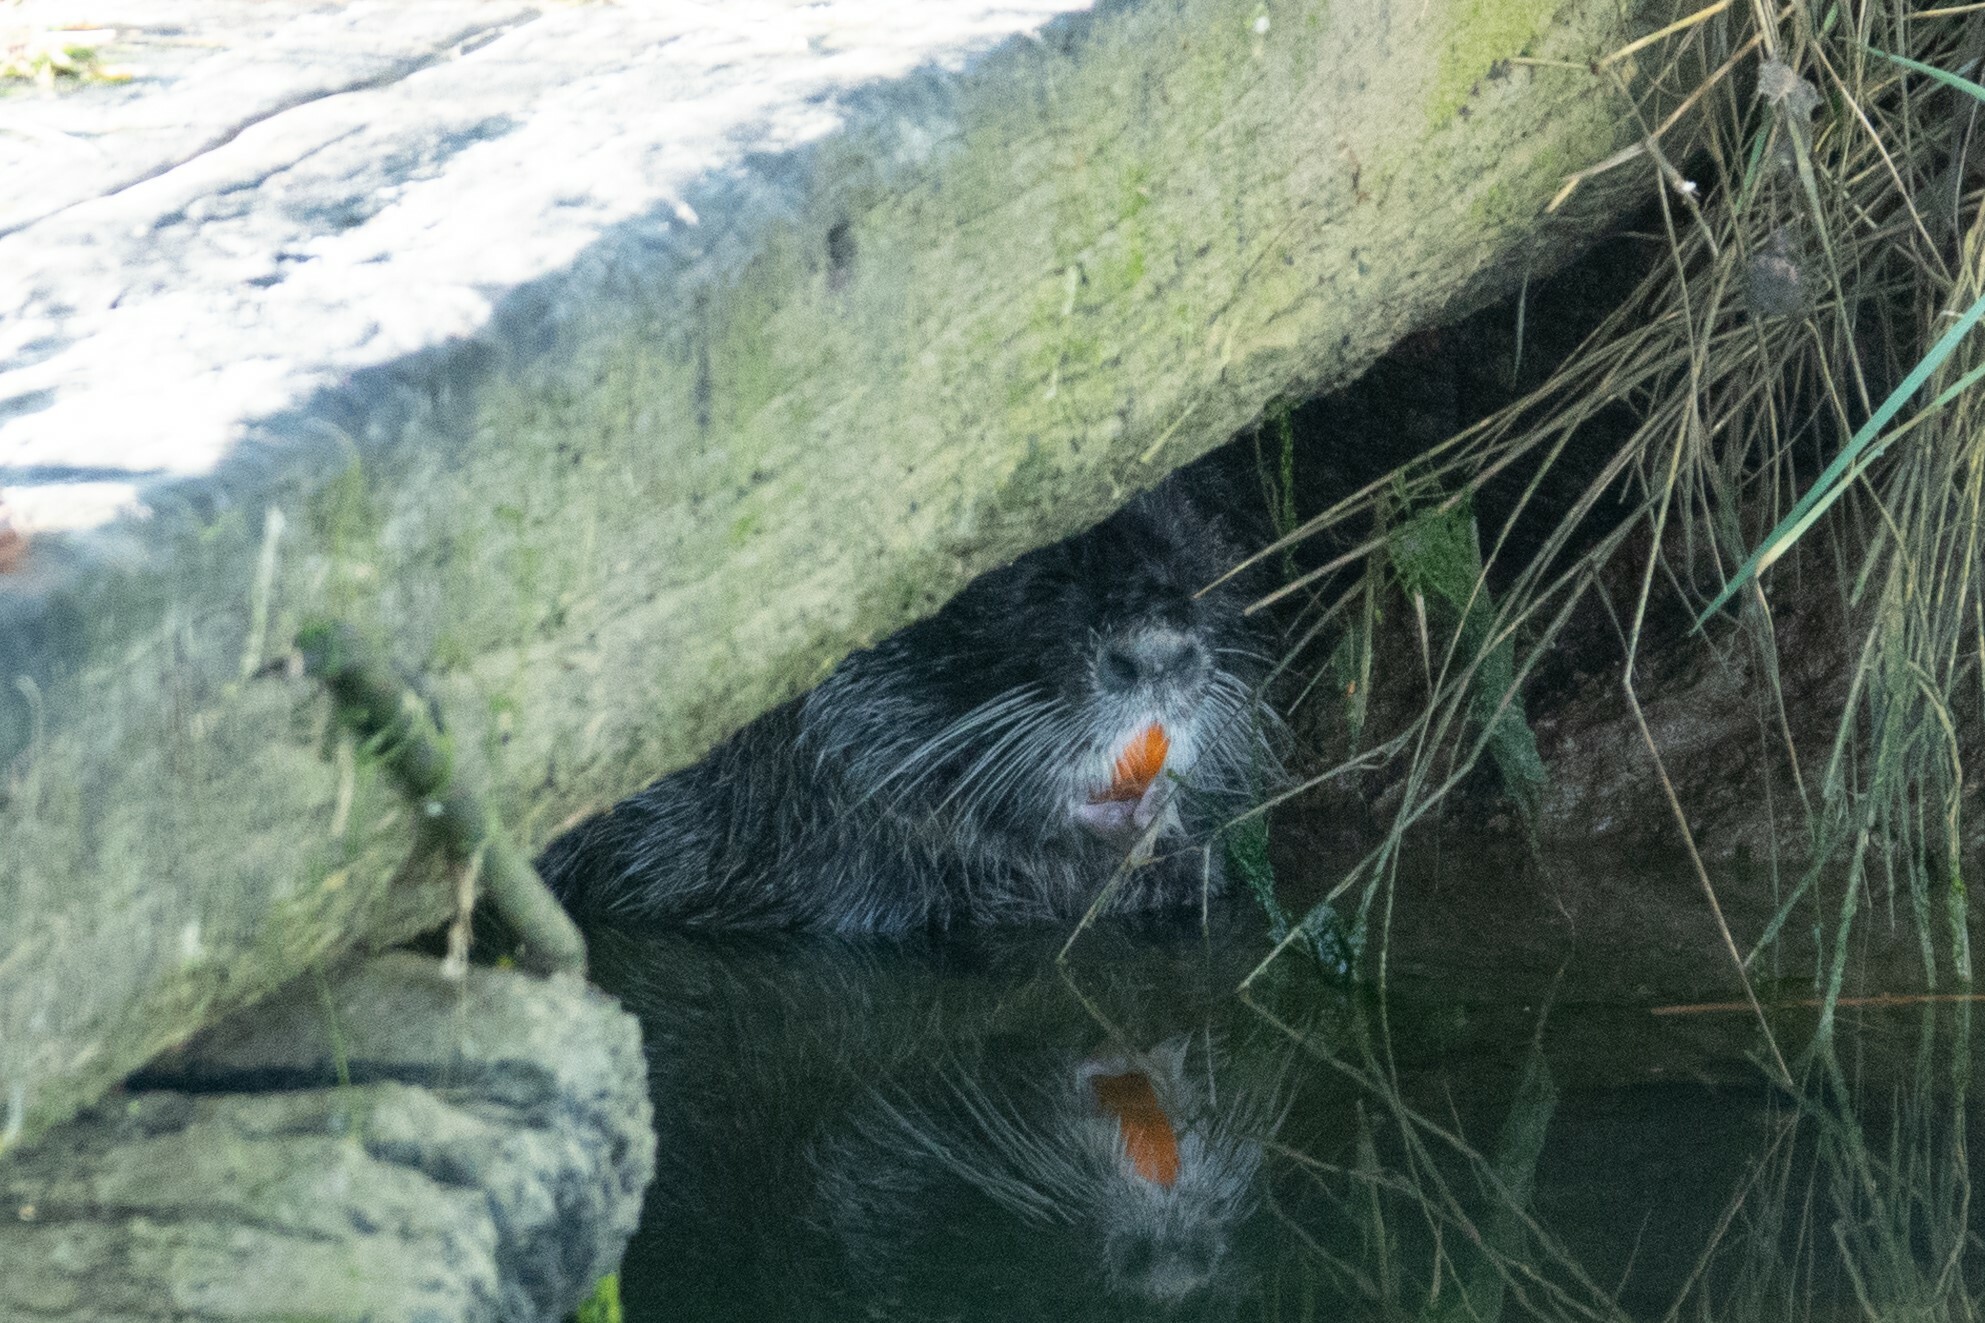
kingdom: Animalia
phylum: Chordata
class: Mammalia
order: Rodentia
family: Myocastoridae
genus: Myocastor
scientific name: Myocastor coypus
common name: Coypu
